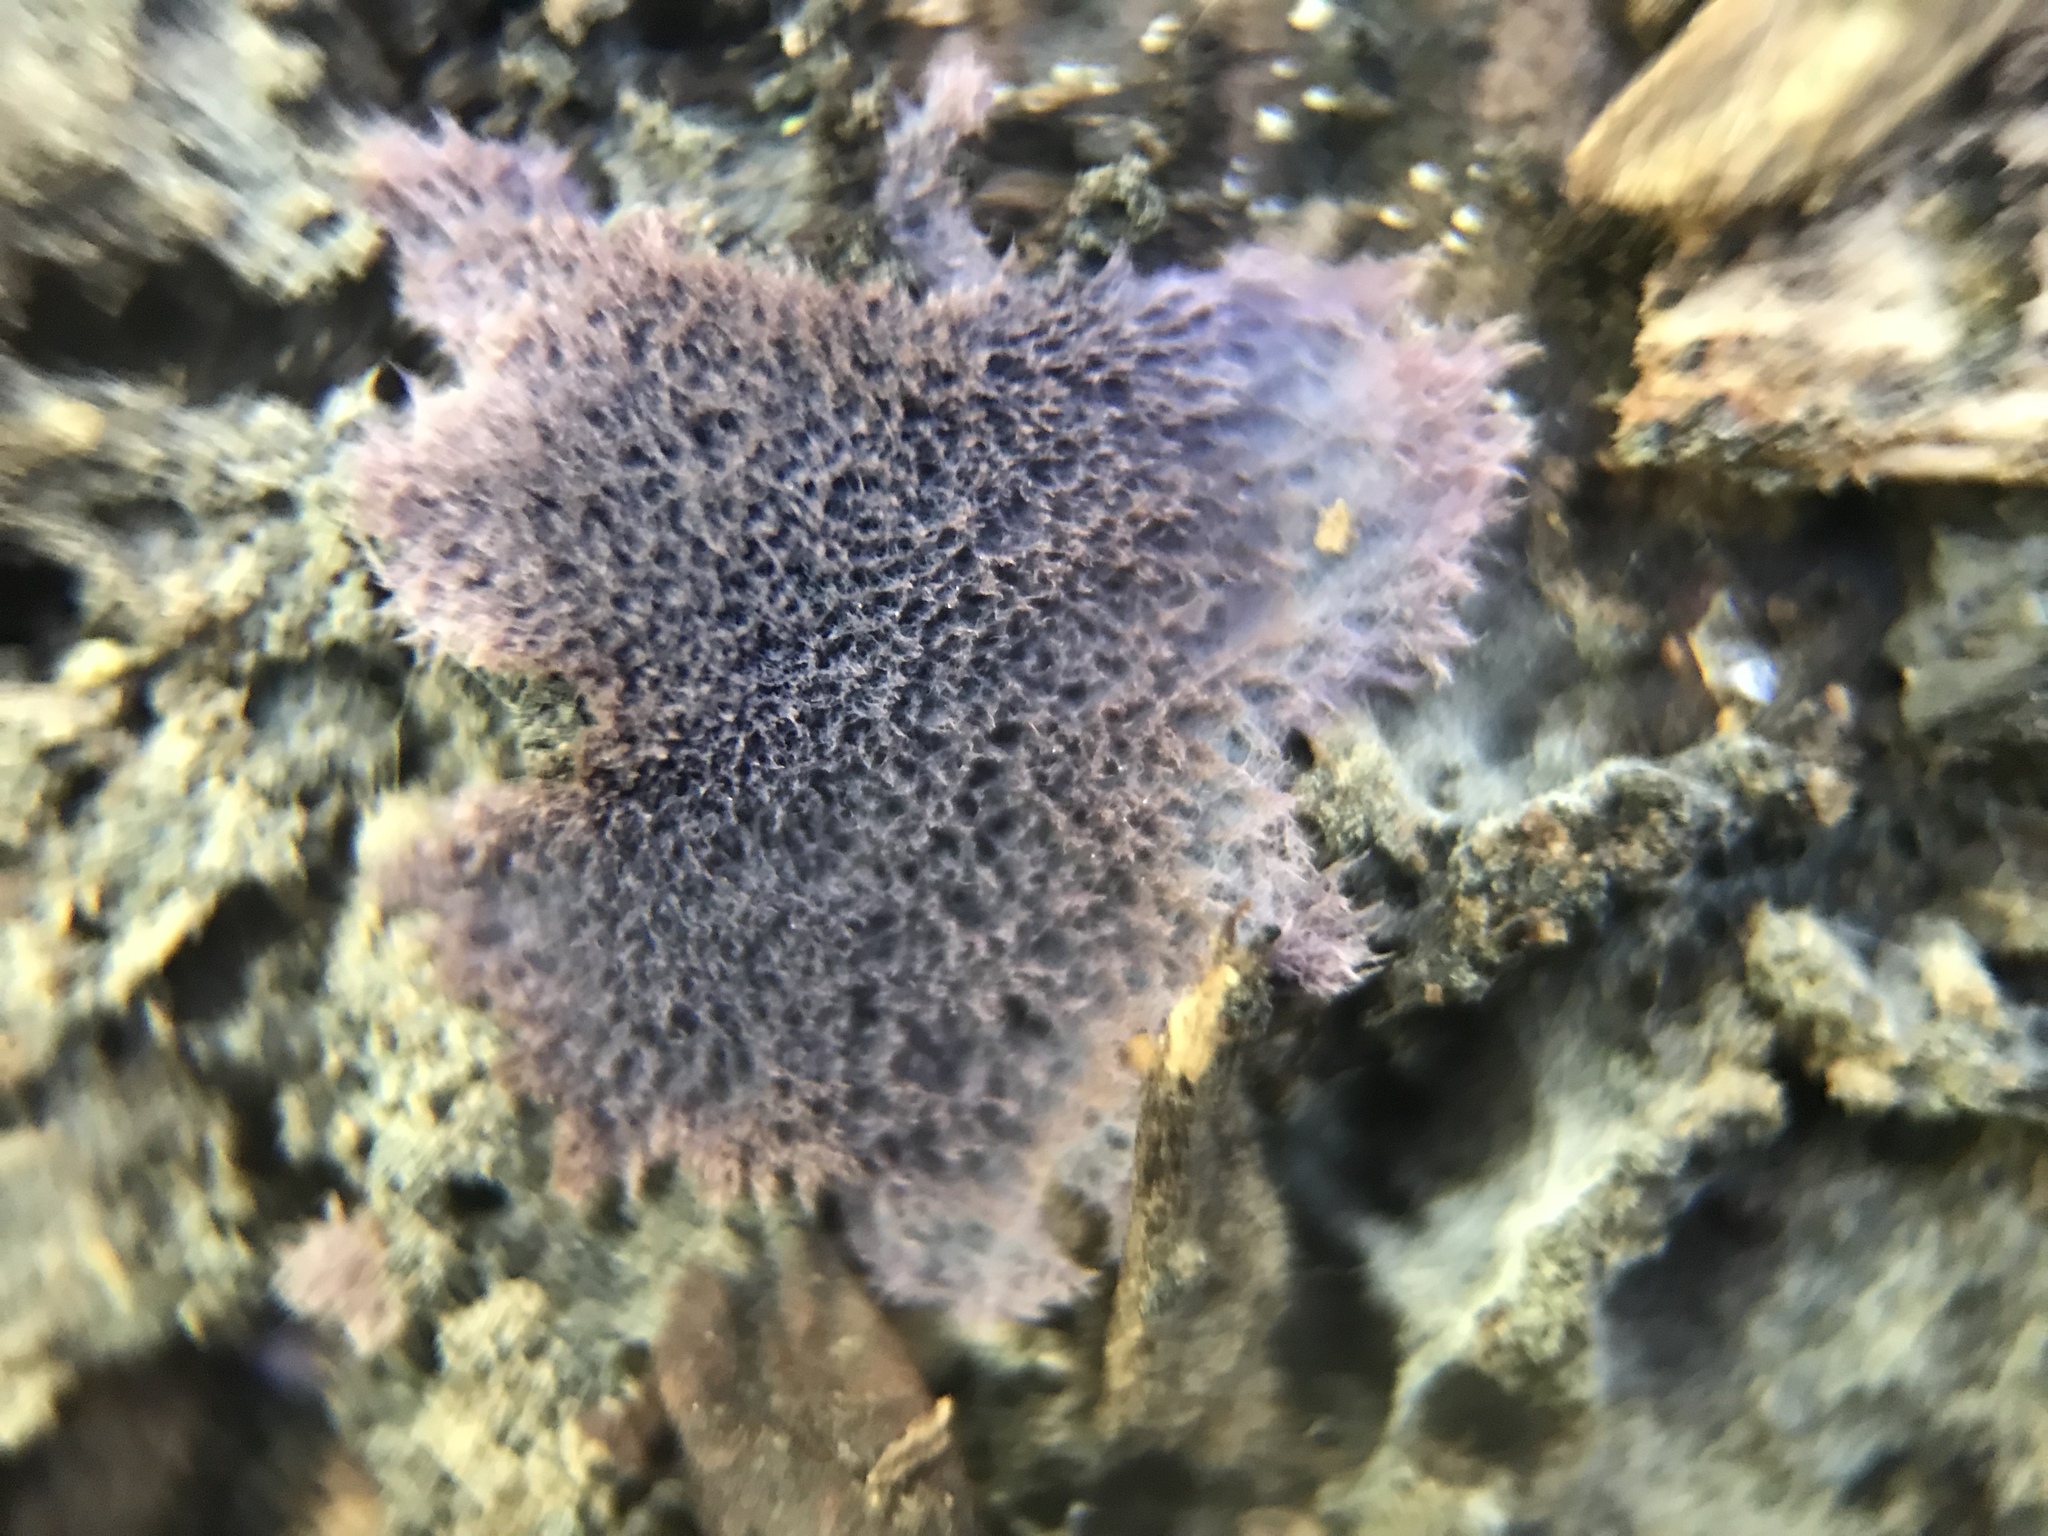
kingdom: Fungi
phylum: Basidiomycota
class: Agaricomycetes
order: Corticiales
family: Punctulariaceae
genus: Punctularia
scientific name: Punctularia atropurpurascens
